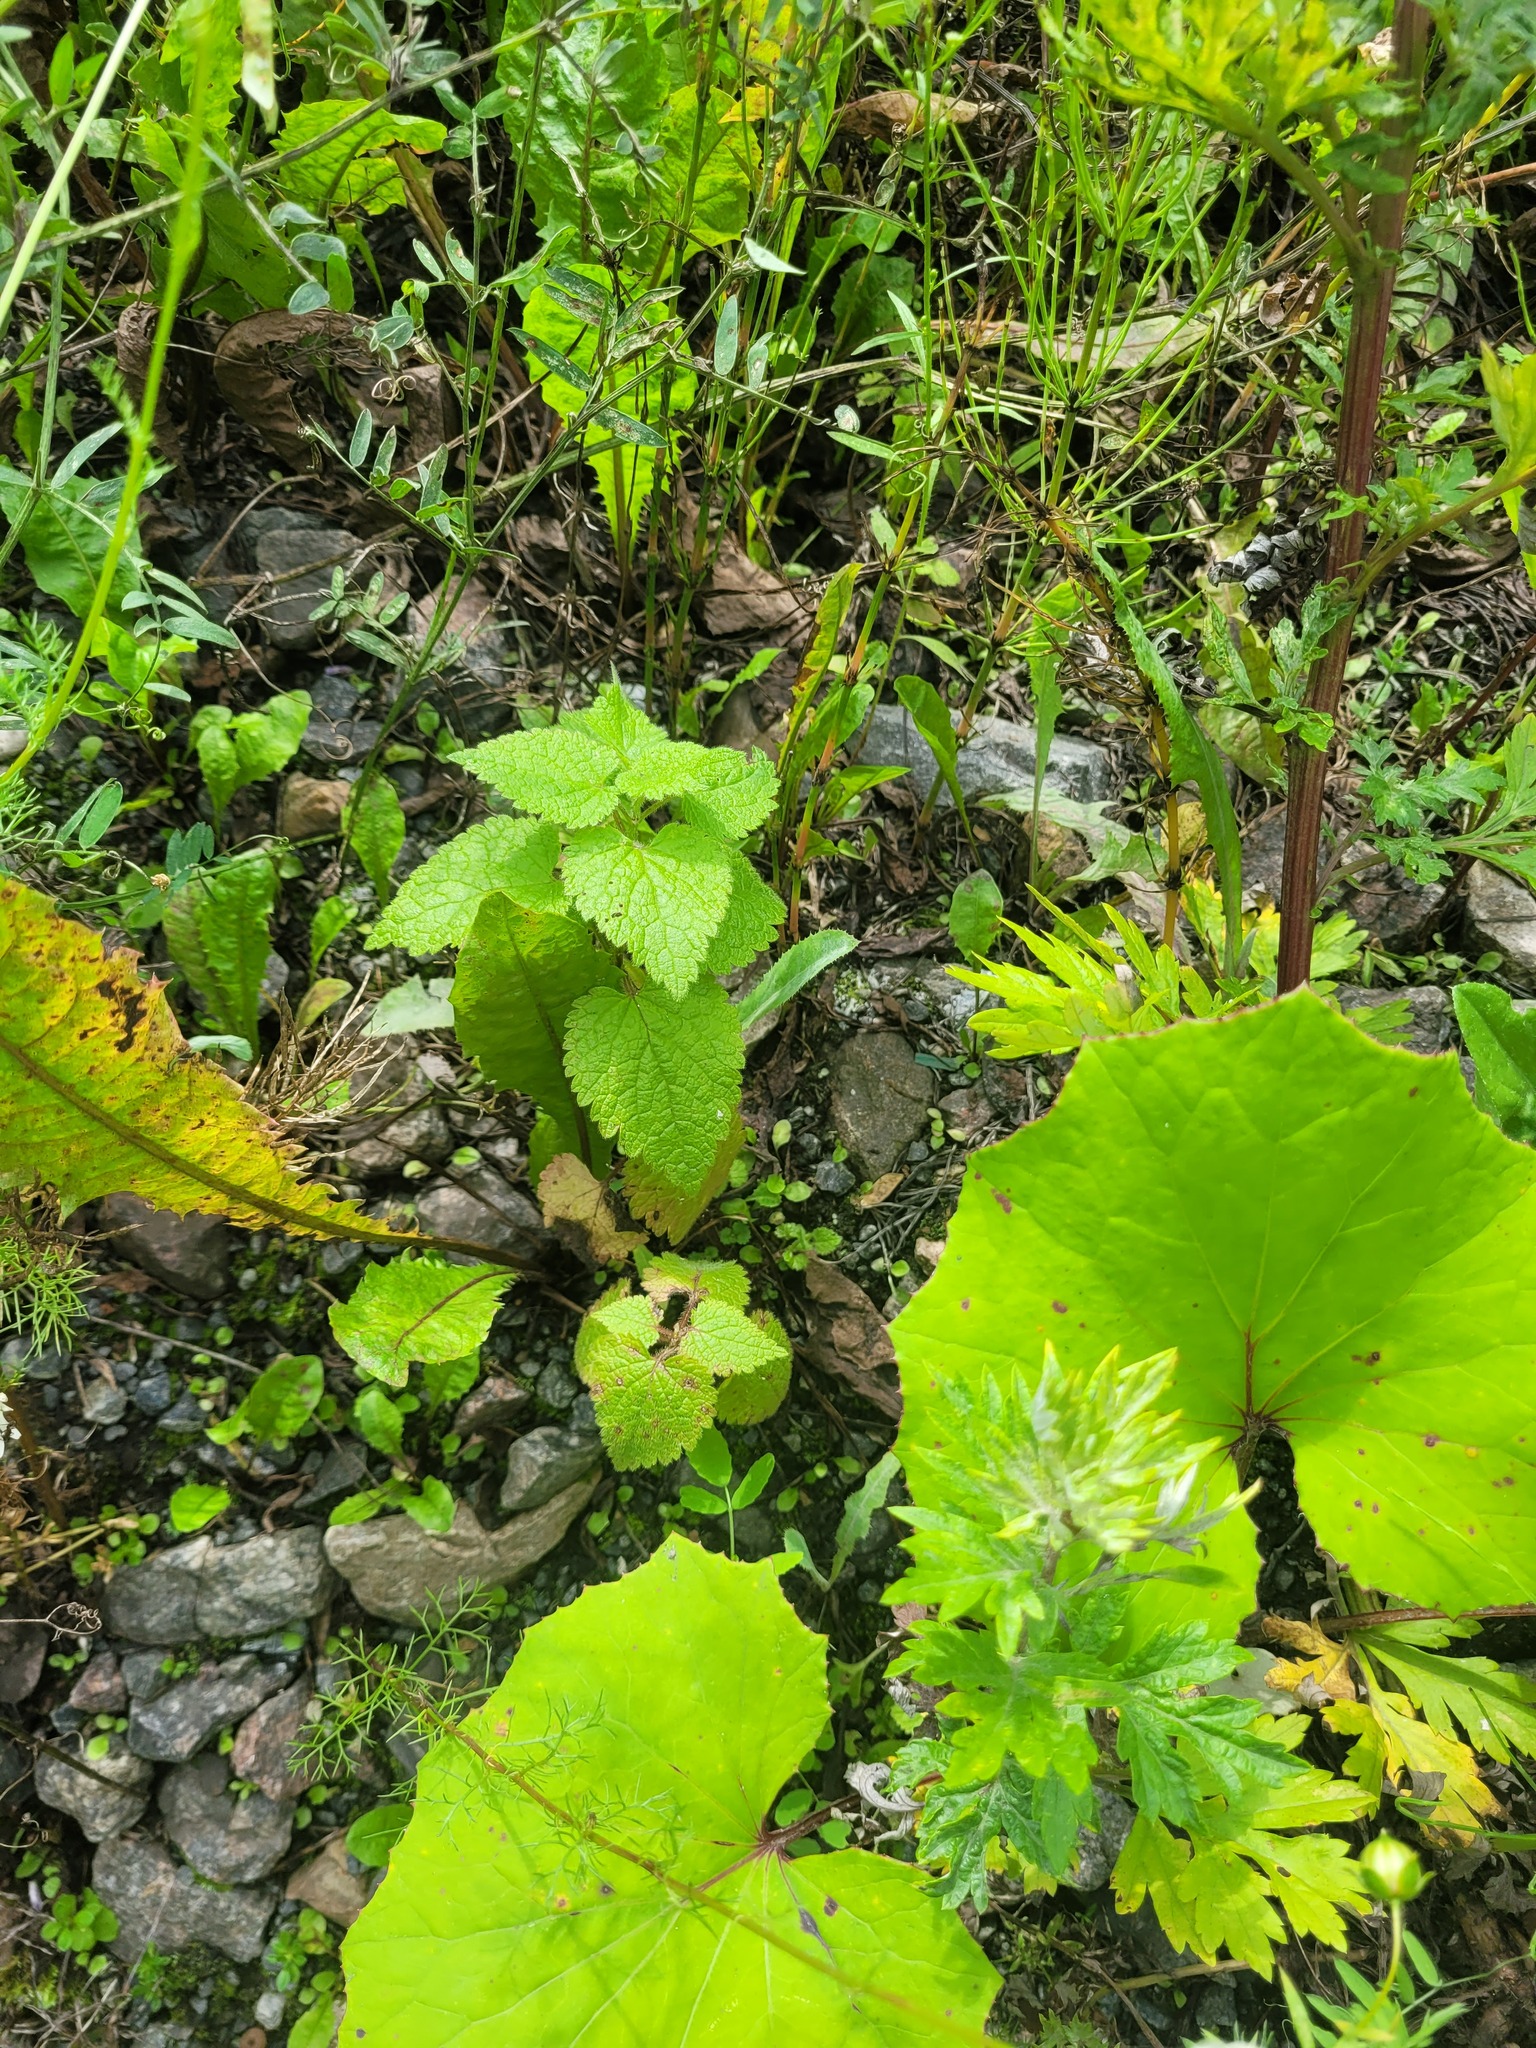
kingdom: Plantae
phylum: Tracheophyta
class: Magnoliopsida
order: Lamiales
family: Lamiaceae
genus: Lamium
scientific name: Lamium maculatum
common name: Spotted dead-nettle
